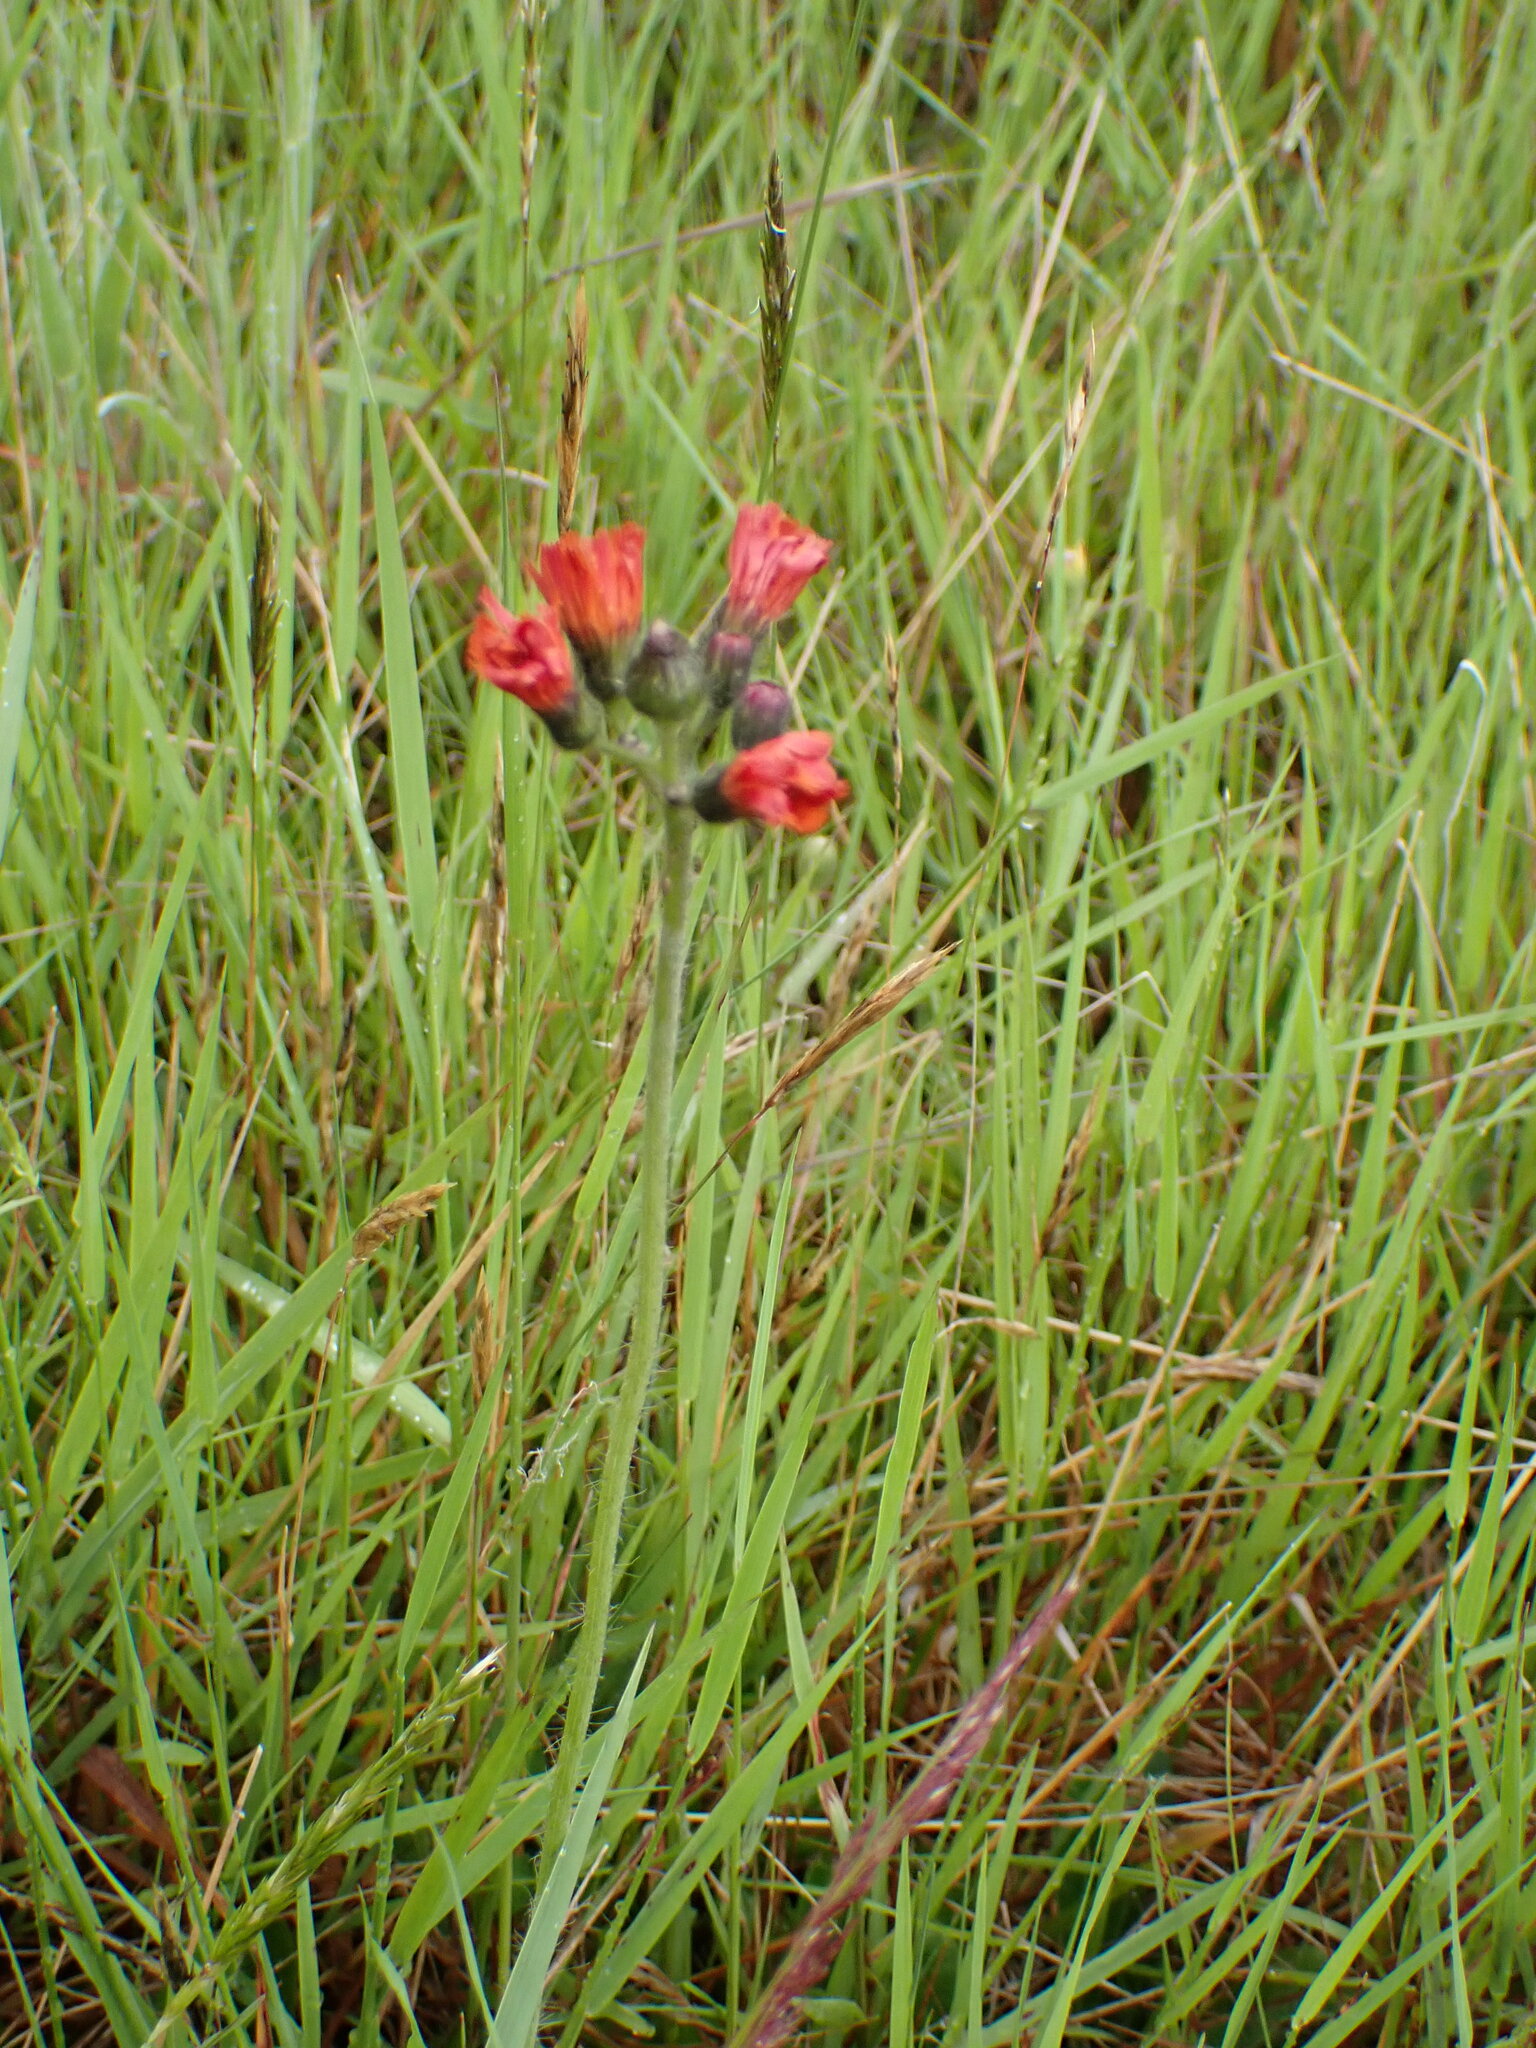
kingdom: Plantae
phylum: Tracheophyta
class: Magnoliopsida
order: Asterales
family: Asteraceae
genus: Pilosella
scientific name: Pilosella aurantiaca
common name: Fox-and-cubs
